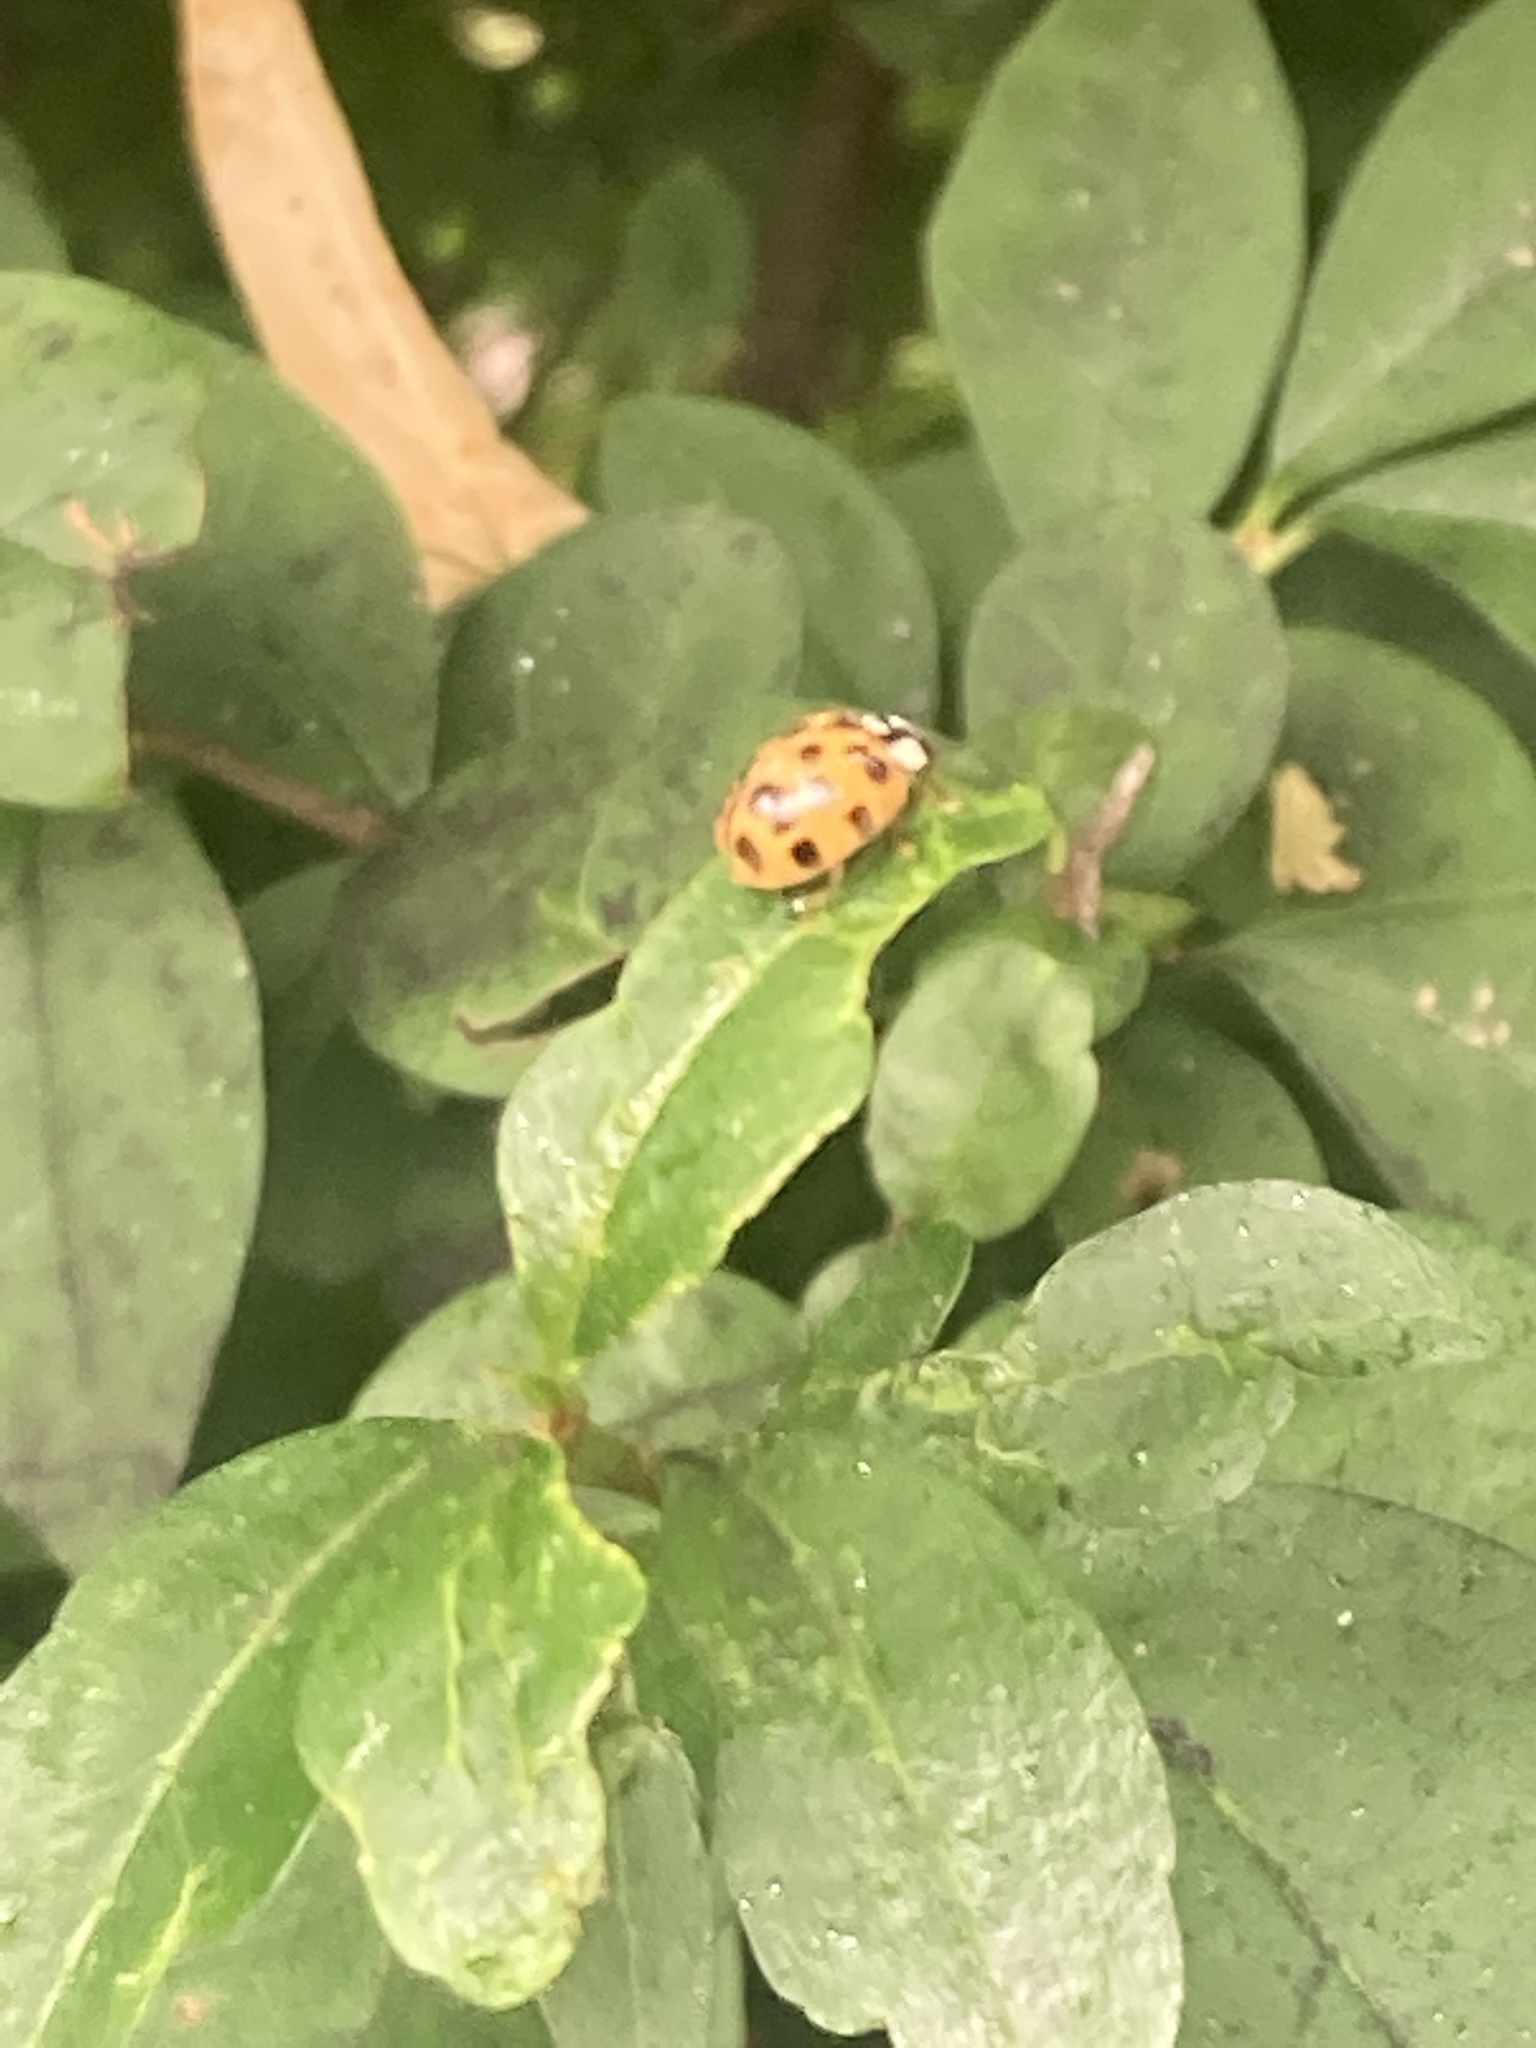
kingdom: Animalia
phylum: Arthropoda
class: Insecta
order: Coleoptera
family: Coccinellidae
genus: Harmonia
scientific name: Harmonia axyridis
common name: Harlequin ladybird
